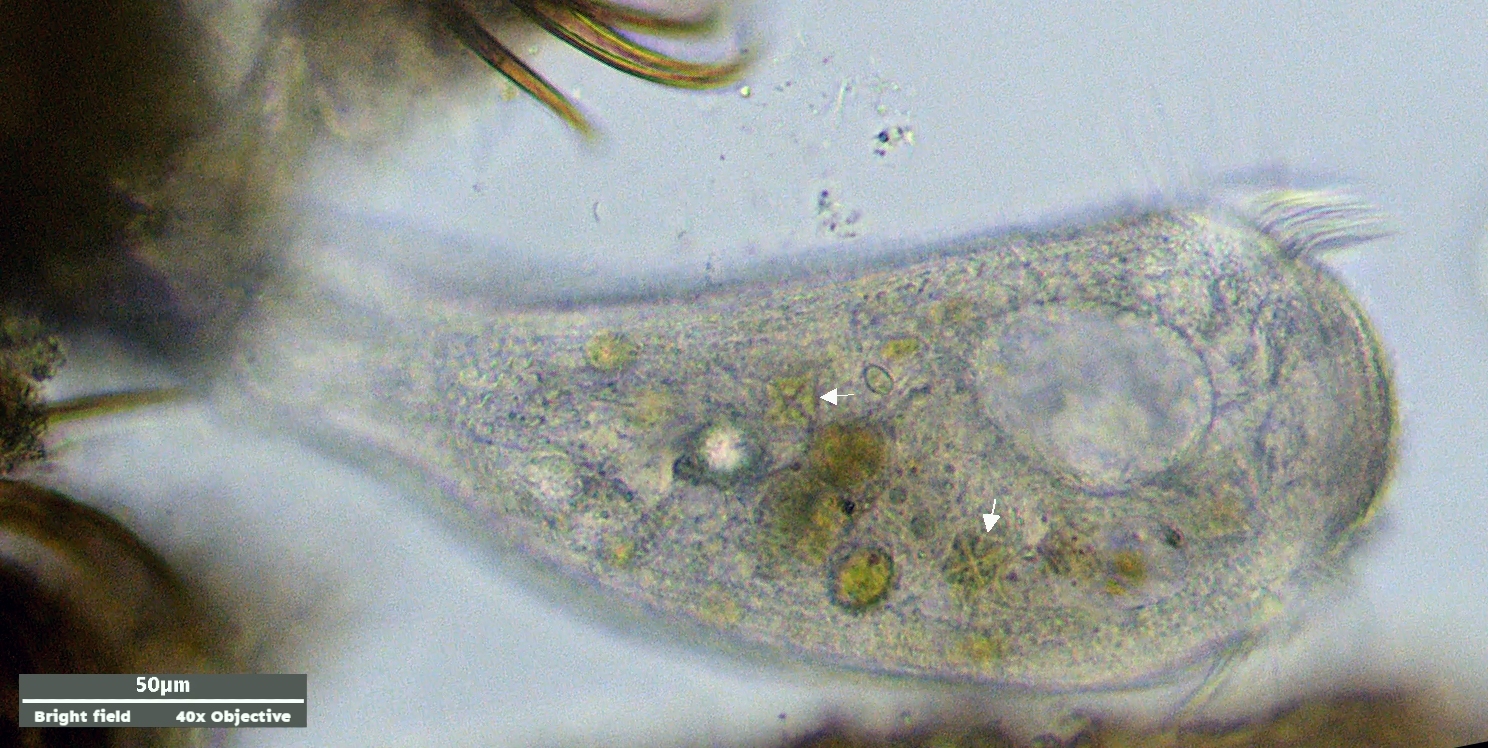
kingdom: Plantae
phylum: Chlorophyta
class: Trebouxiophyceae
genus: Crucigenia
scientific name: Crucigenia tetrapedia
